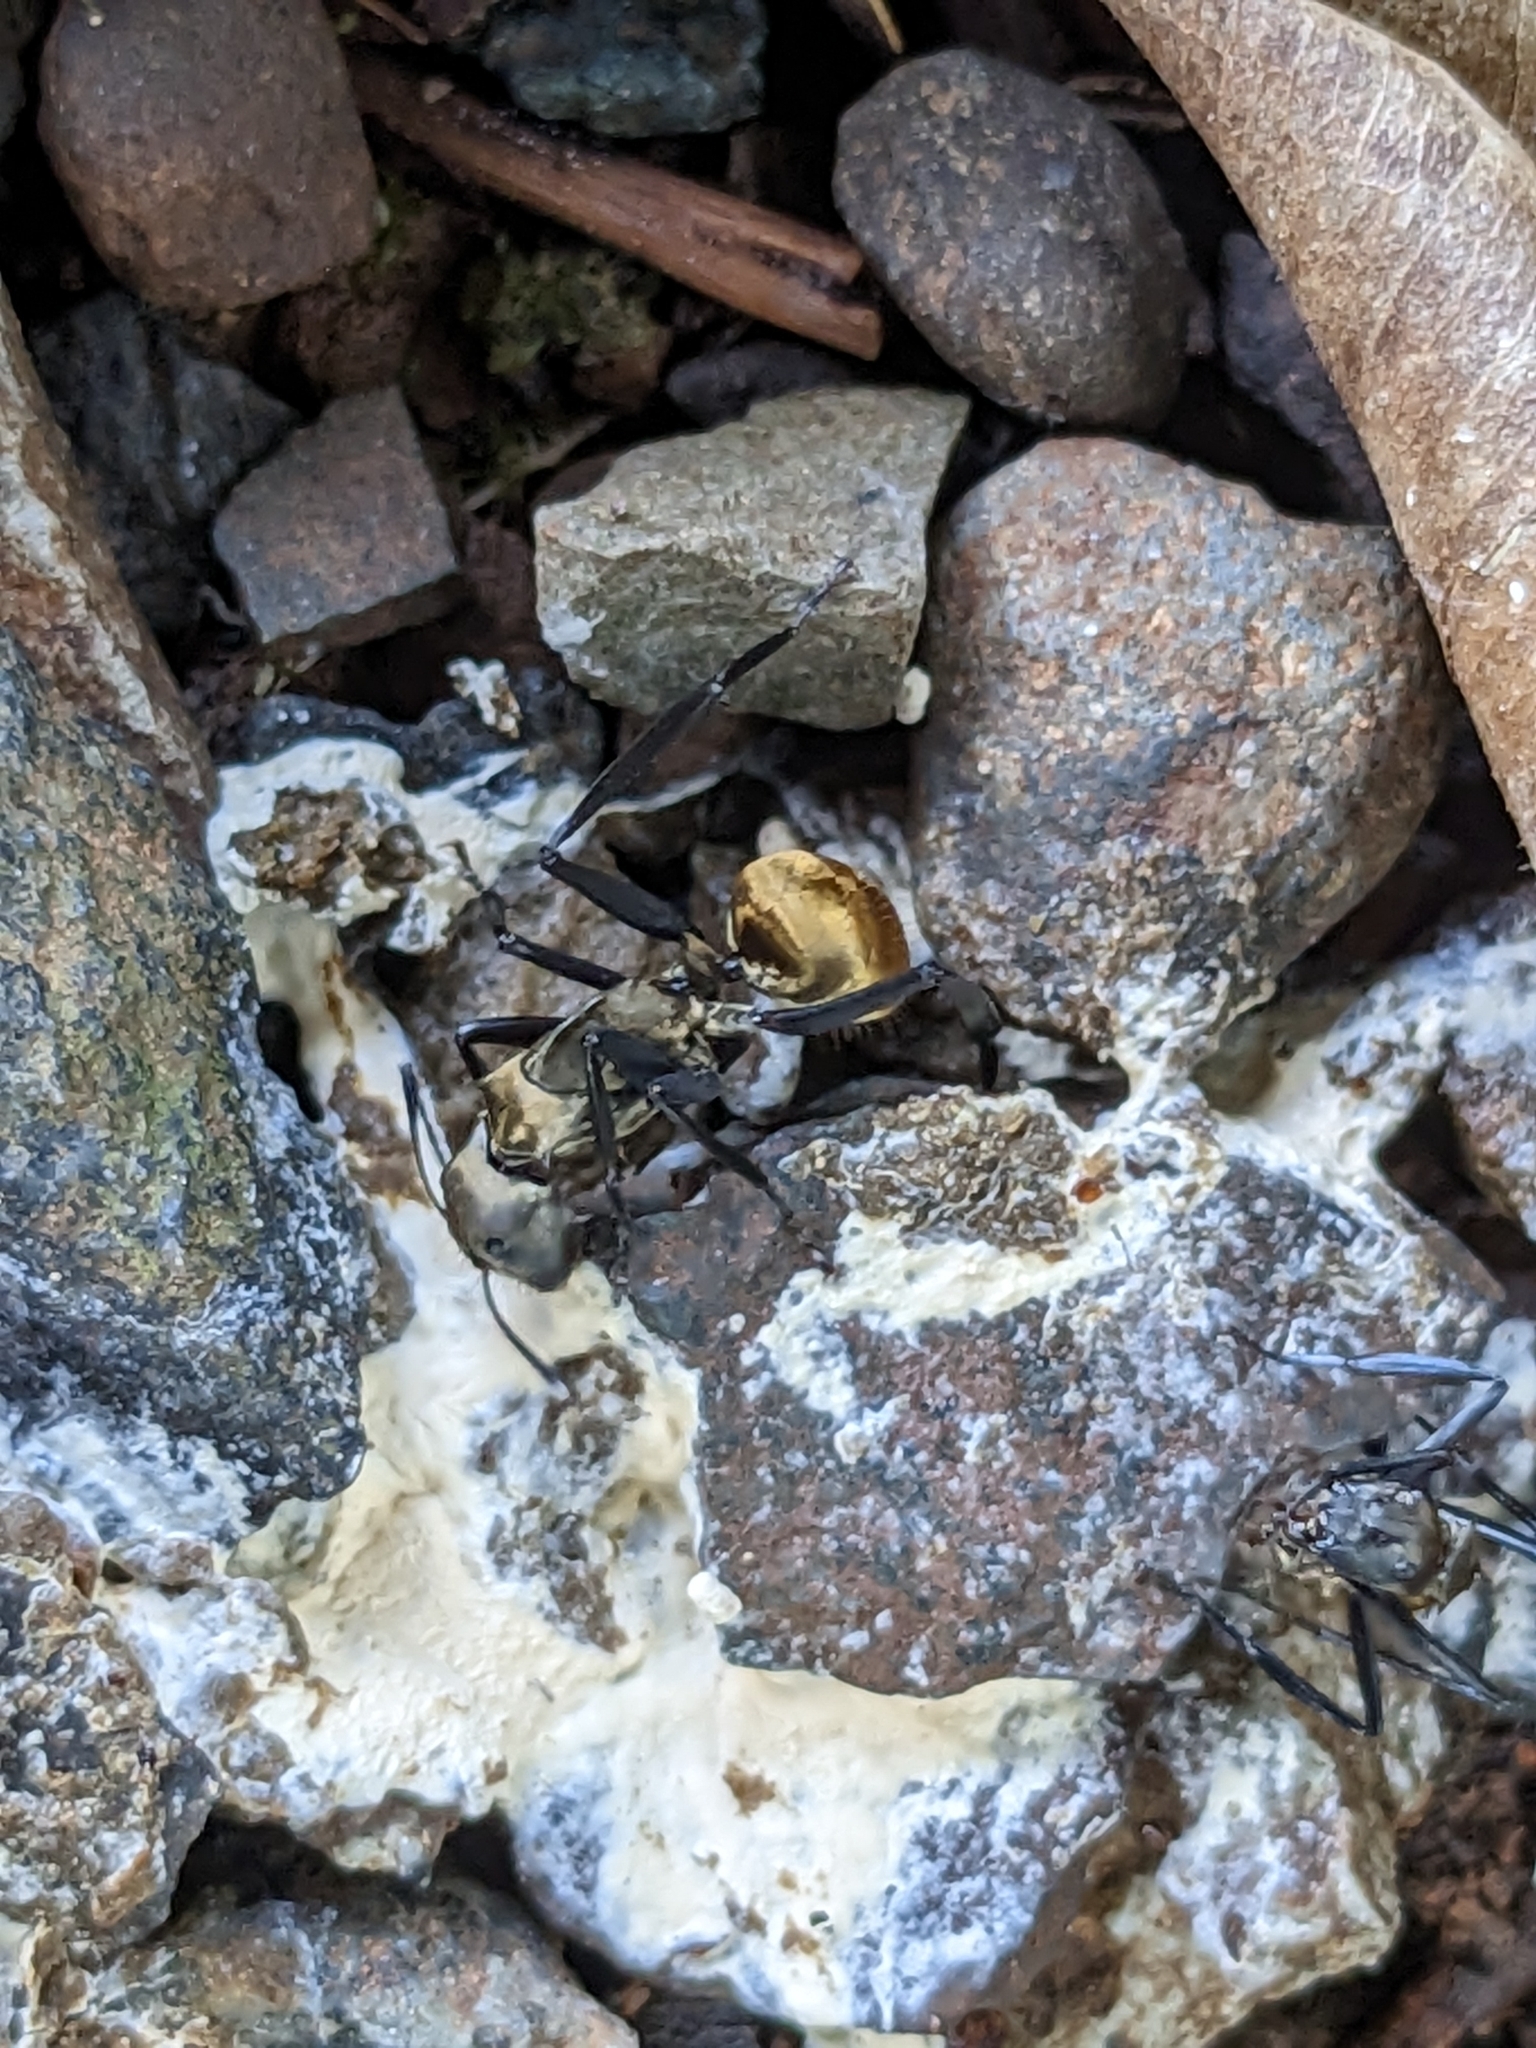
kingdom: Animalia
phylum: Arthropoda
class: Insecta
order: Hymenoptera
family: Formicidae
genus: Camponotus
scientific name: Camponotus sericeiventris
